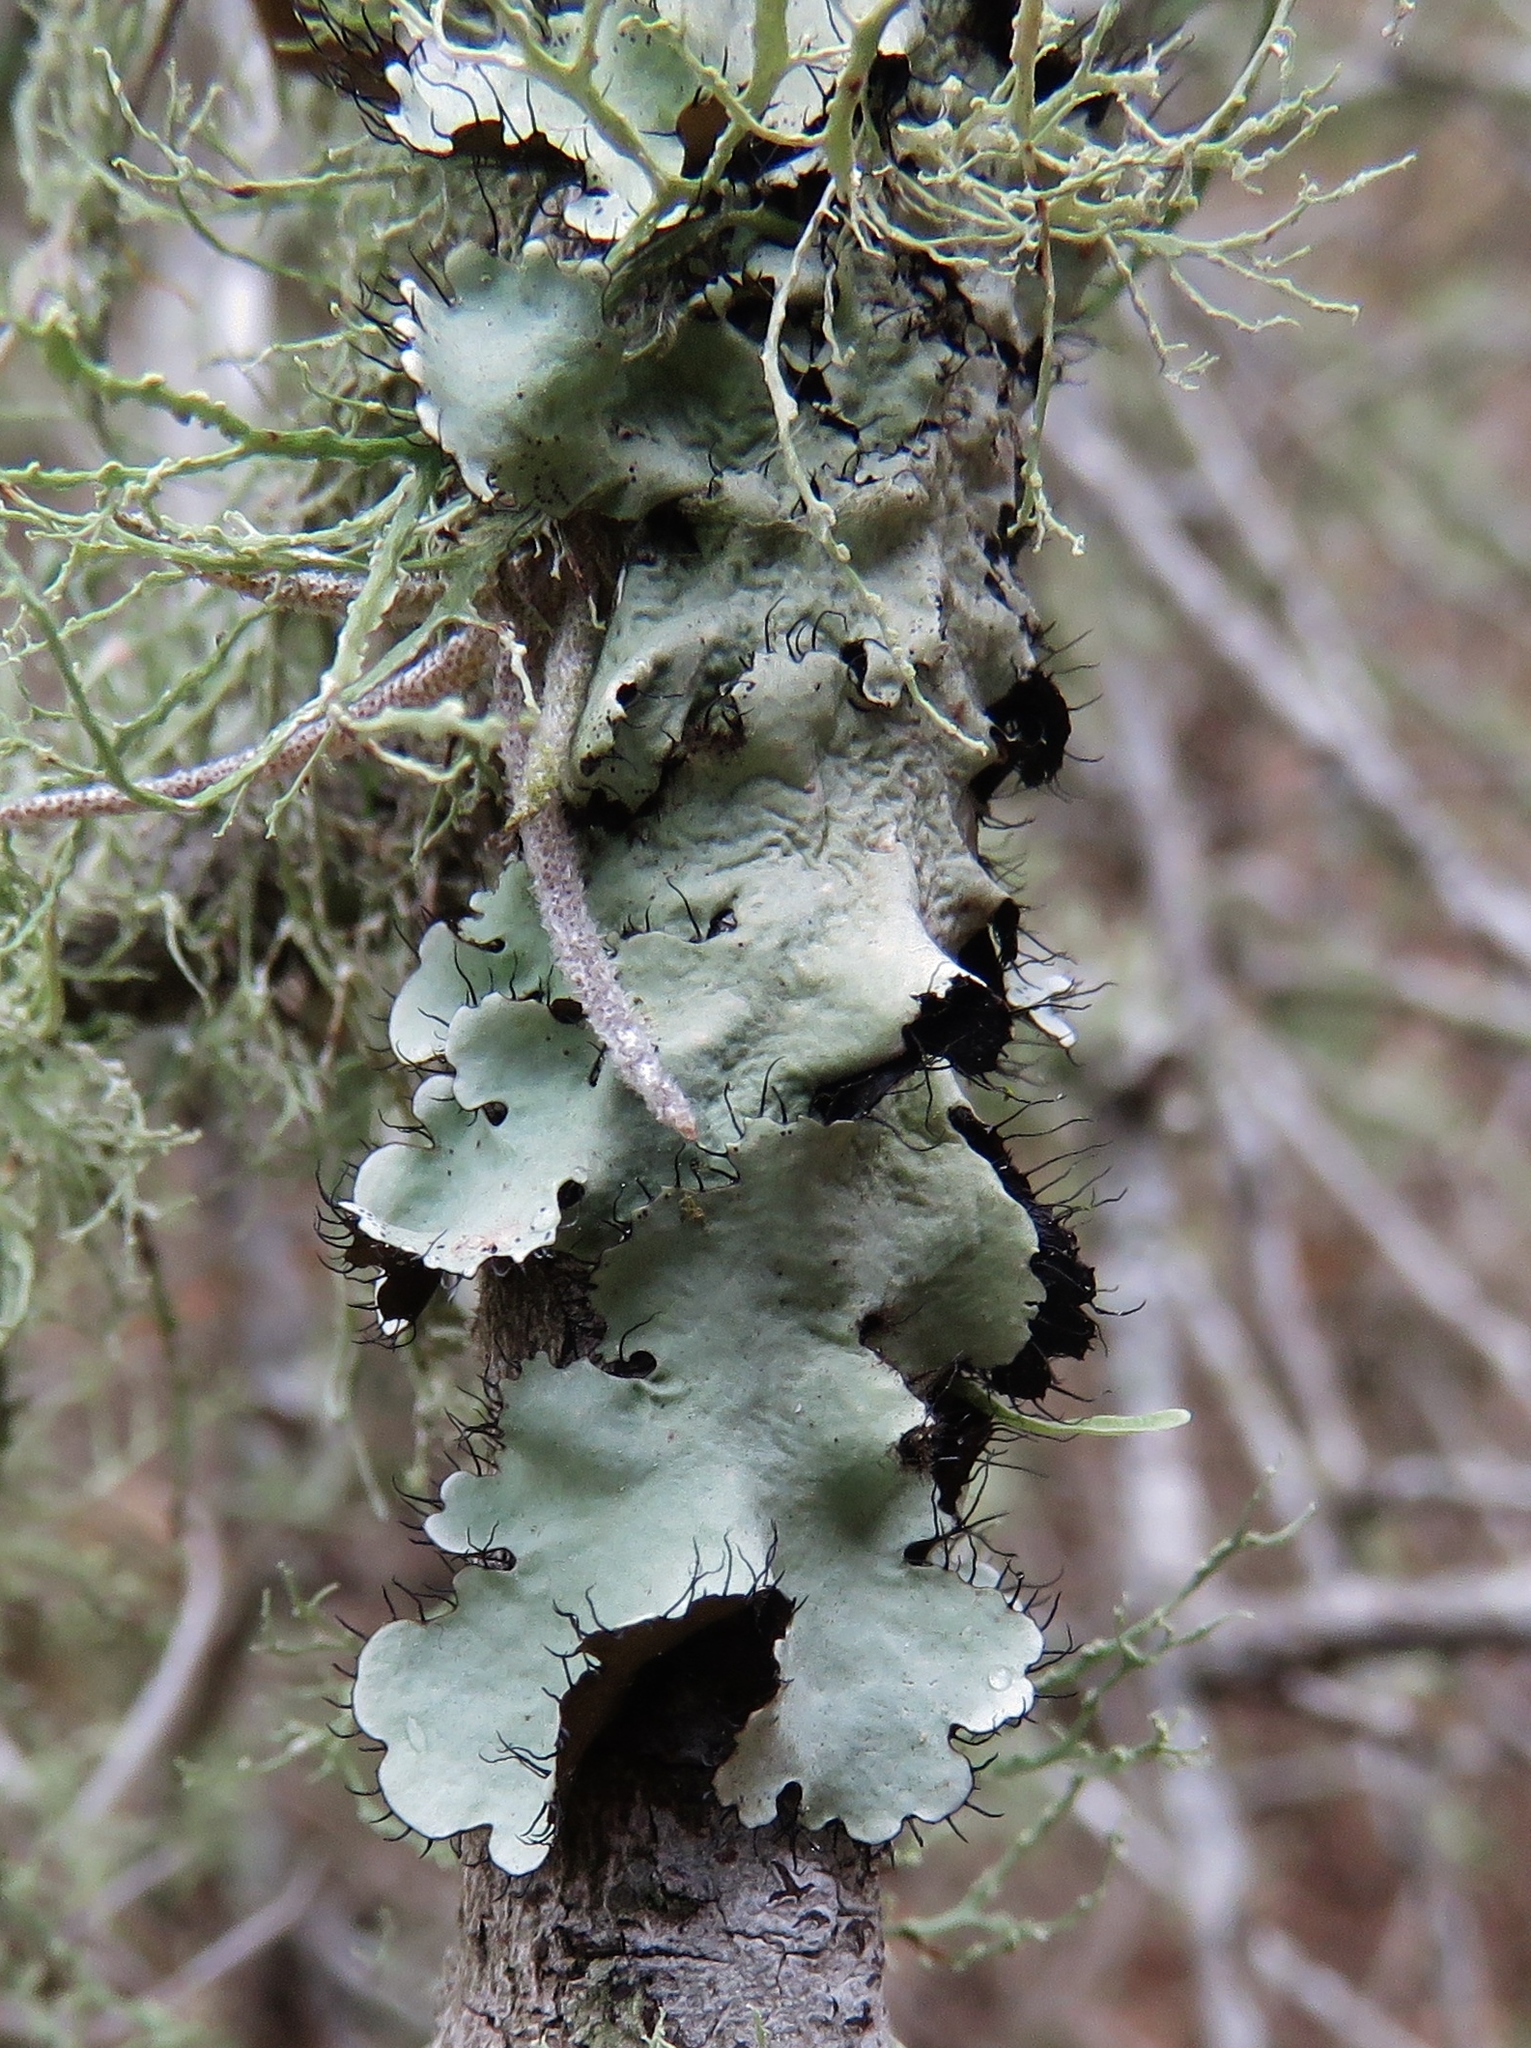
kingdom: Fungi
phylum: Ascomycota
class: Lecanoromycetes
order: Lecanorales
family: Parmeliaceae
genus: Parmotrema
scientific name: Parmotrema hypotropum
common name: Powdered ruffle lichen
